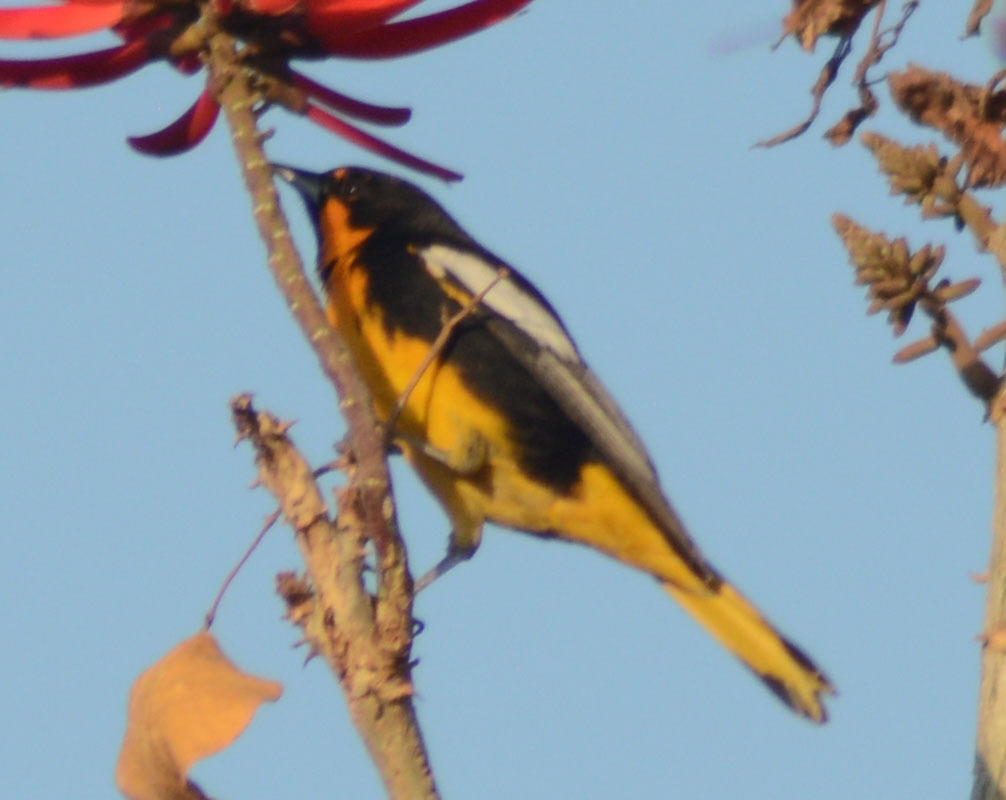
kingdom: Animalia
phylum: Chordata
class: Aves
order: Passeriformes
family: Icteridae
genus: Icterus
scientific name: Icterus abeillei
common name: Black-backed oriole
